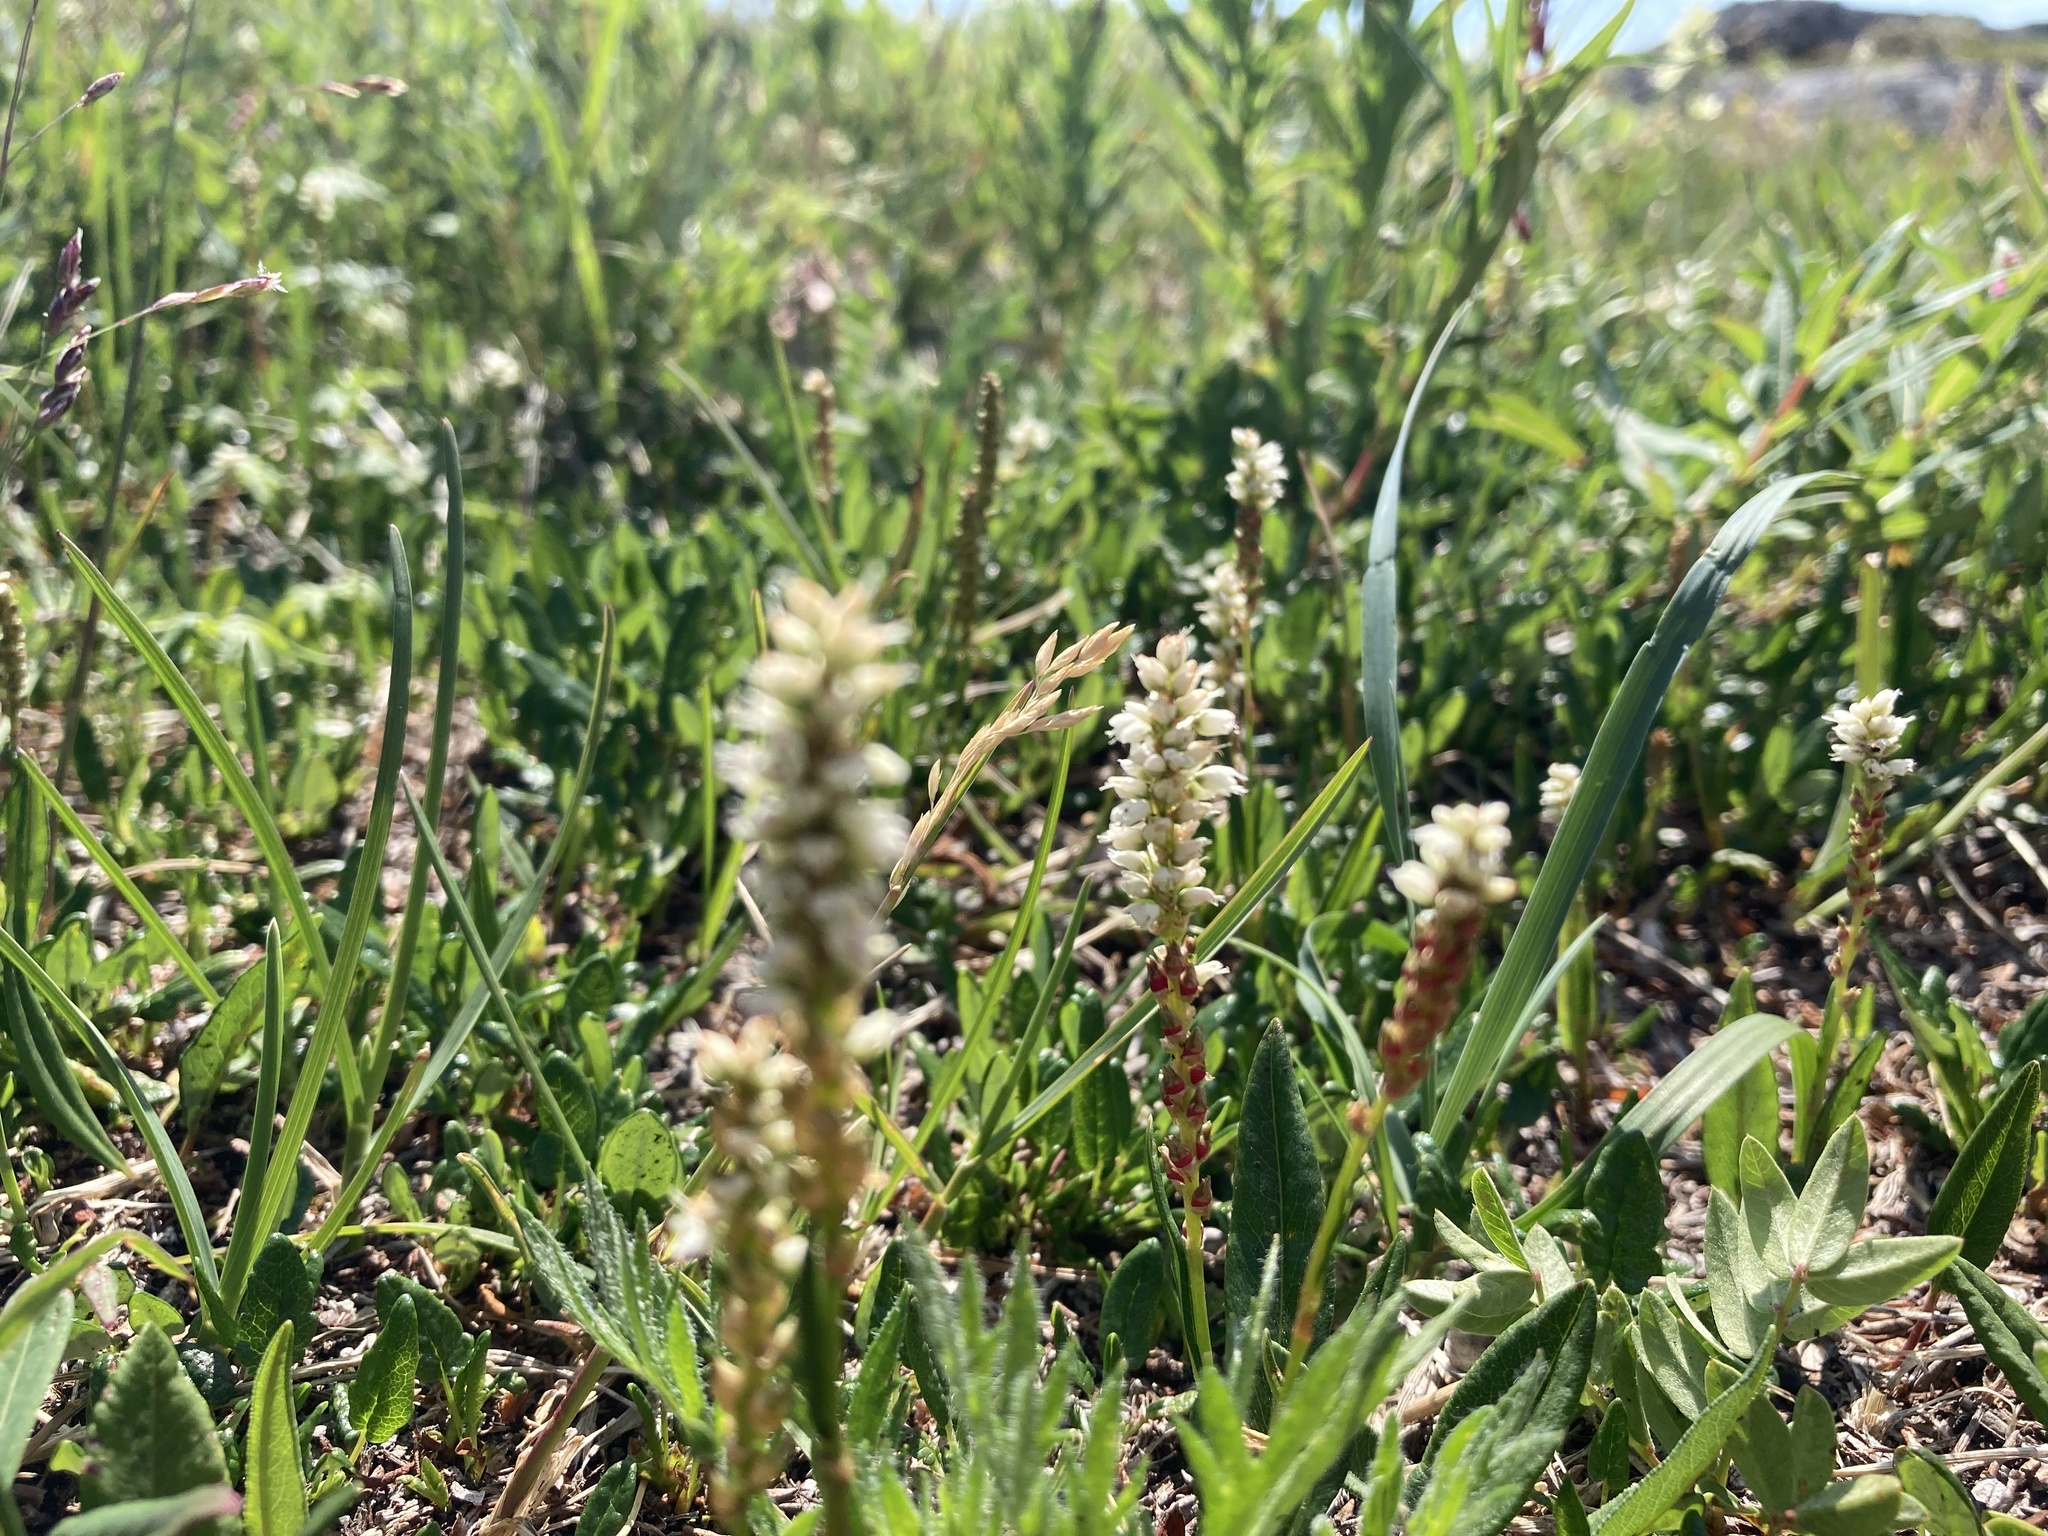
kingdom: Plantae
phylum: Tracheophyta
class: Magnoliopsida
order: Caryophyllales
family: Polygonaceae
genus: Bistorta
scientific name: Bistorta vivipara
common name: Alpine bistort
